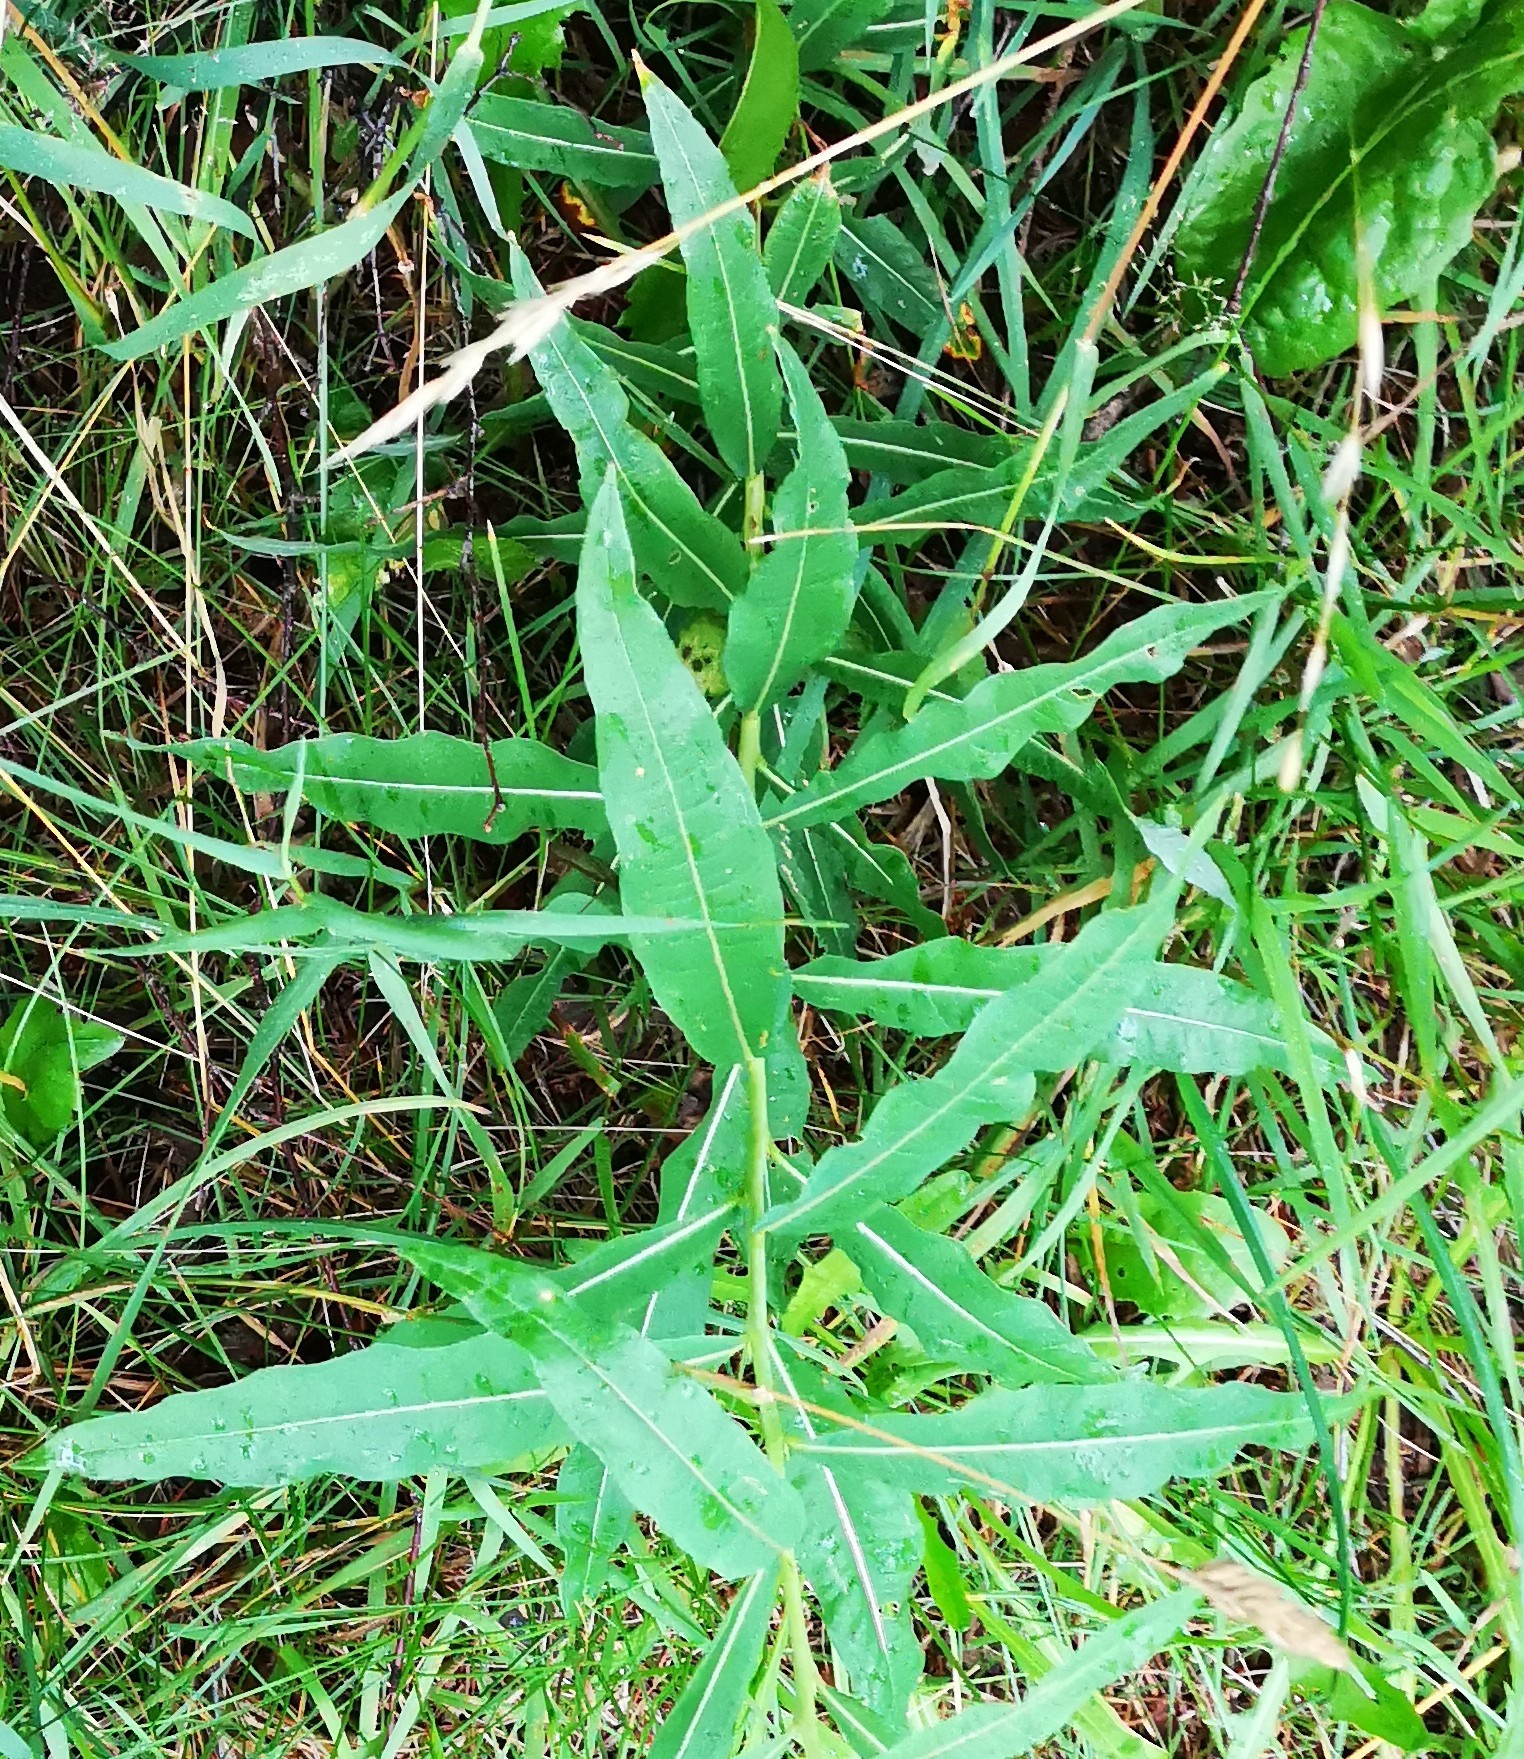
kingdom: Plantae
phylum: Tracheophyta
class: Magnoliopsida
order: Myrtales
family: Onagraceae
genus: Chamaenerion
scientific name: Chamaenerion angustifolium
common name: Fireweed
